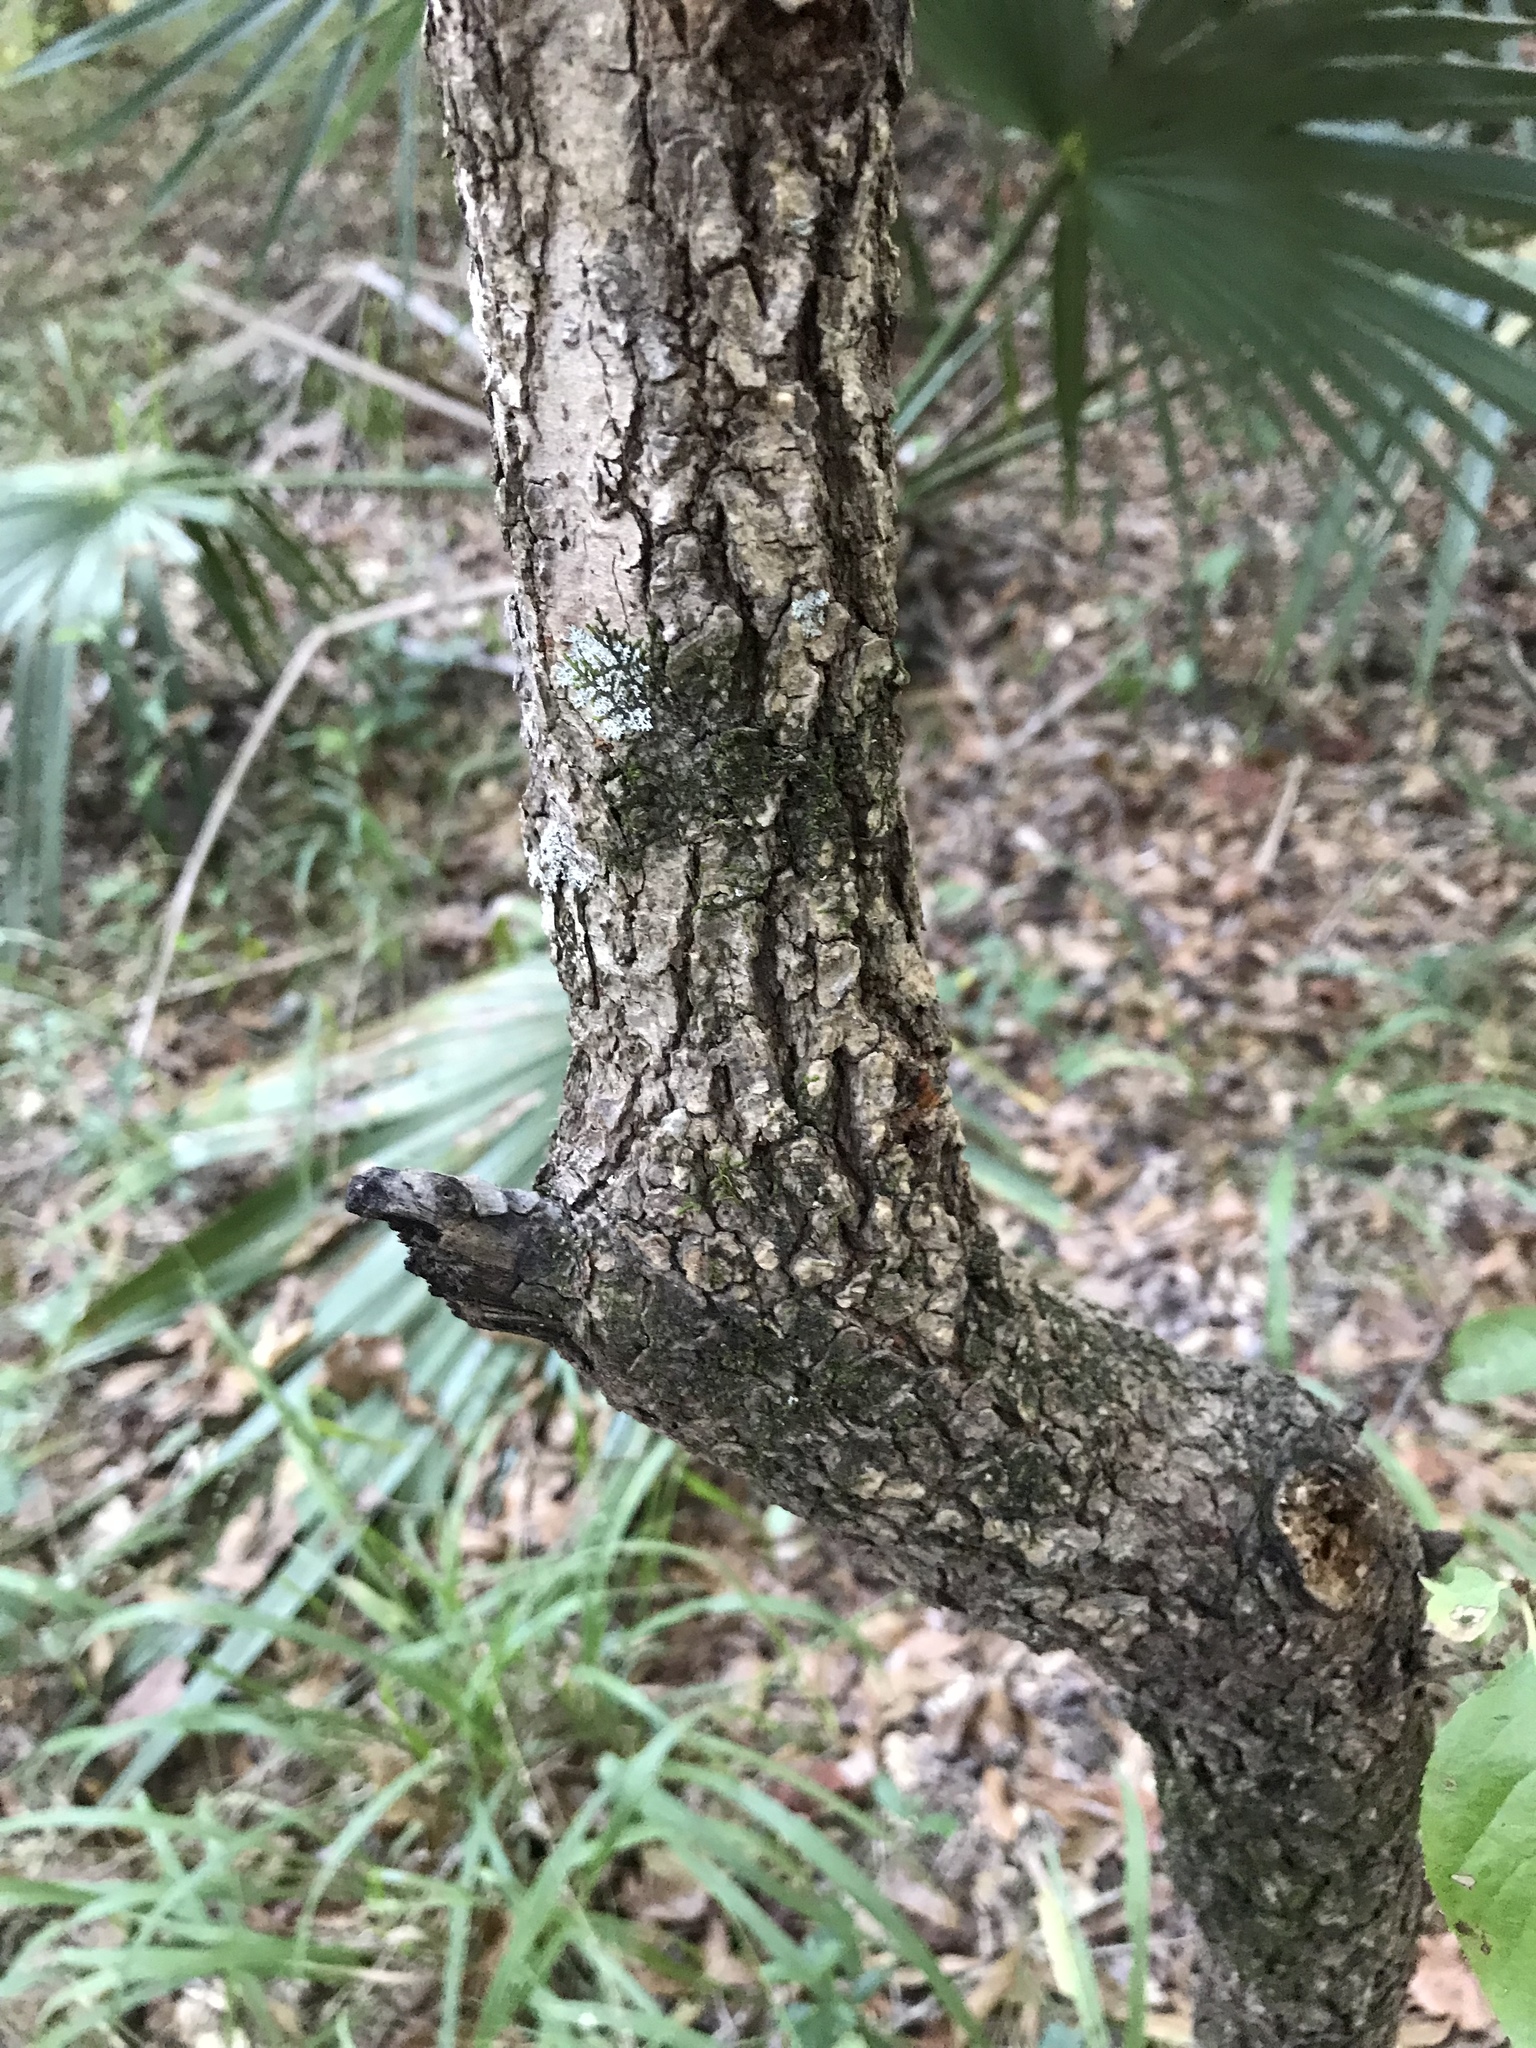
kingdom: Plantae
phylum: Tracheophyta
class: Magnoliopsida
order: Dipsacales
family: Viburnaceae
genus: Viburnum
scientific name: Viburnum rufidulum
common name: Blue haw
